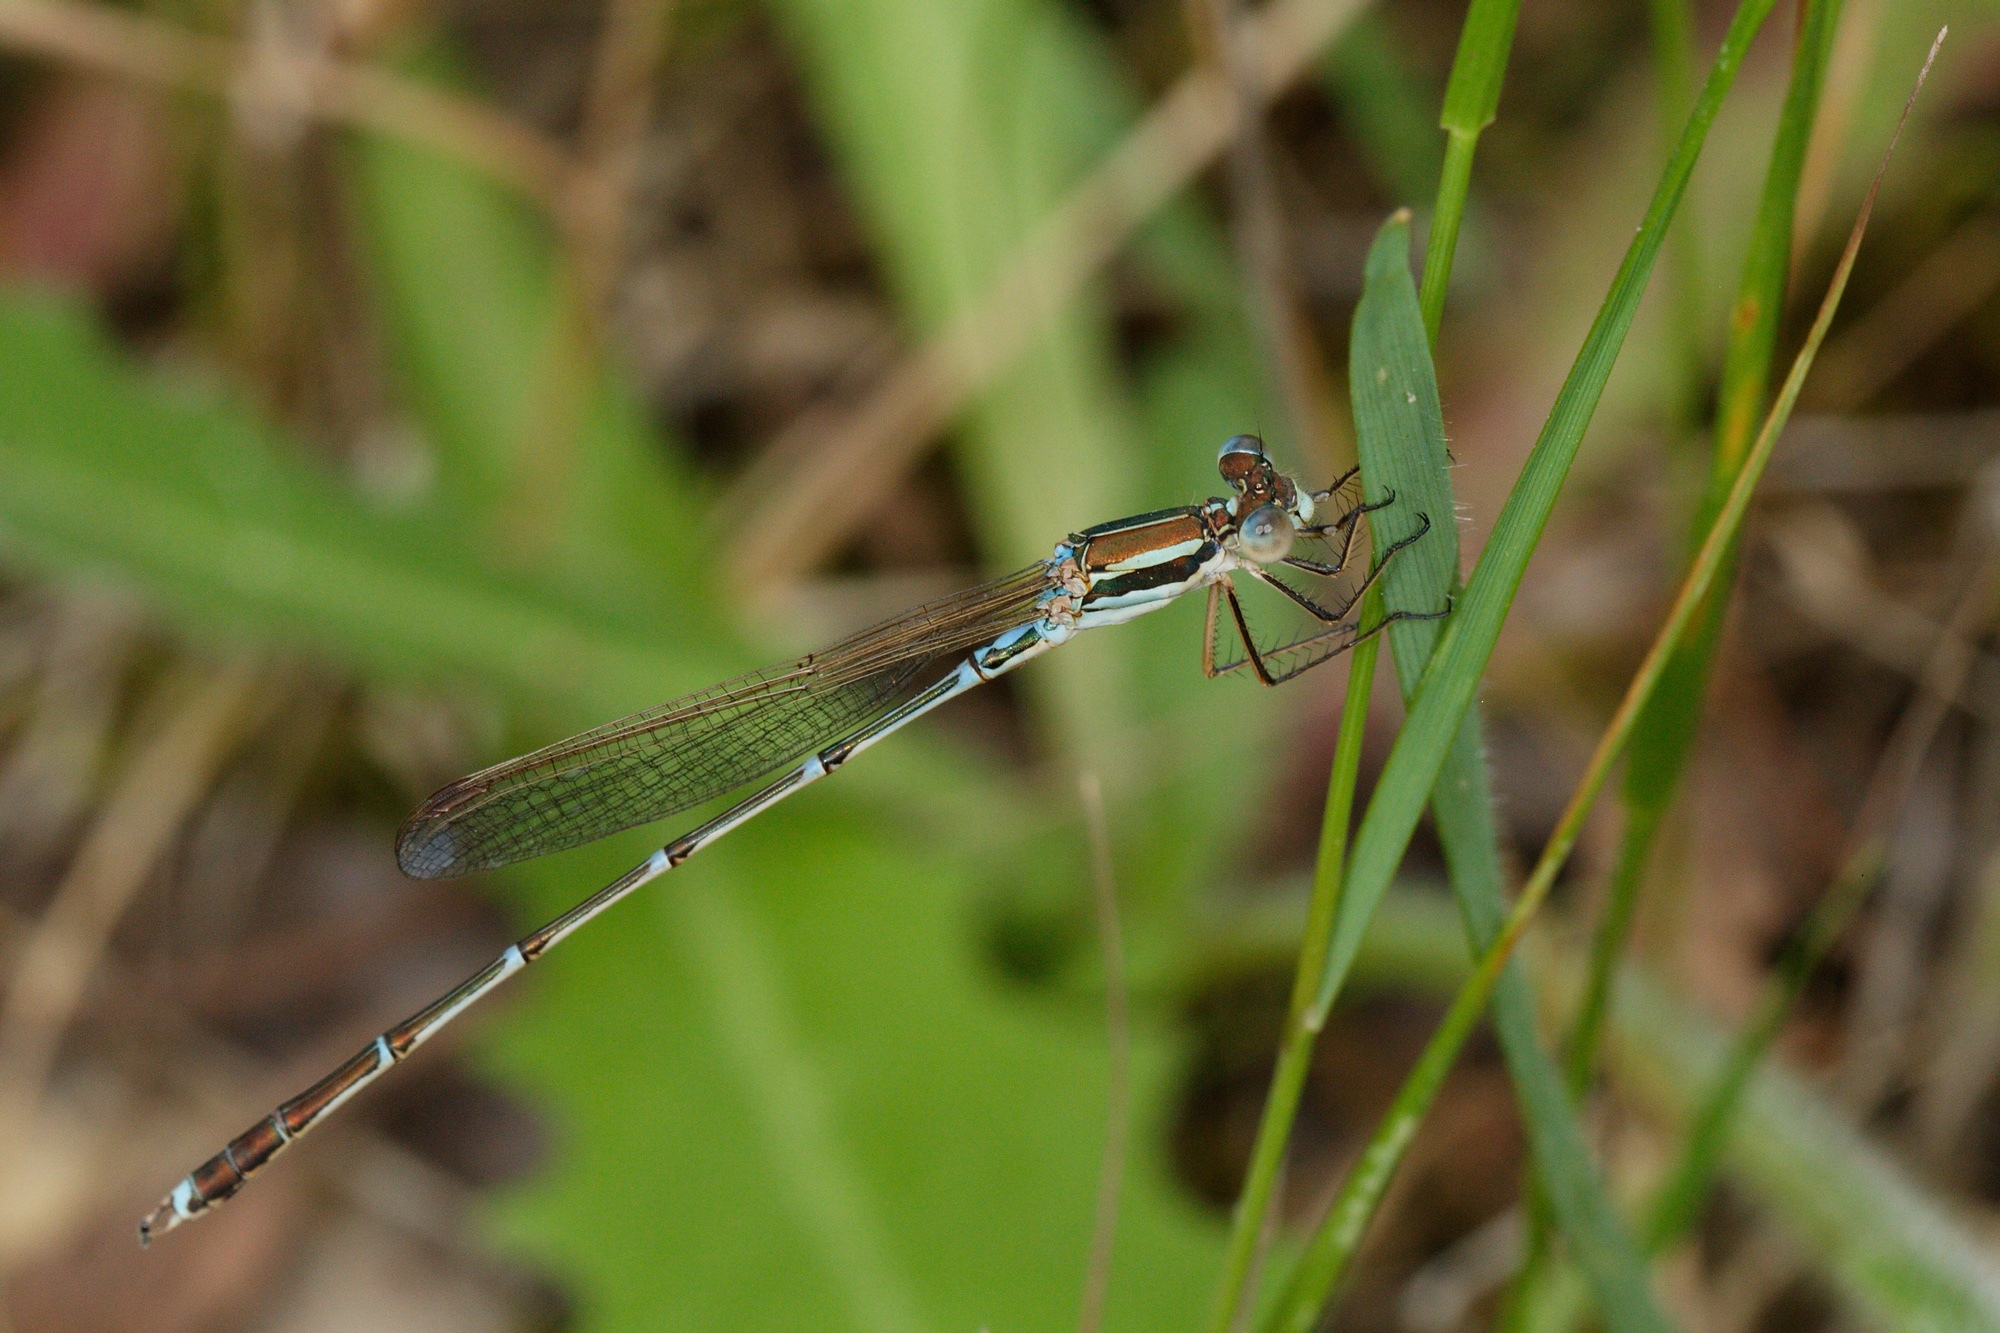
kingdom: Animalia
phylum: Arthropoda
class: Insecta
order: Odonata
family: Lestidae
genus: Austrolestes
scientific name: Austrolestes analis
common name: Slender ringtail
